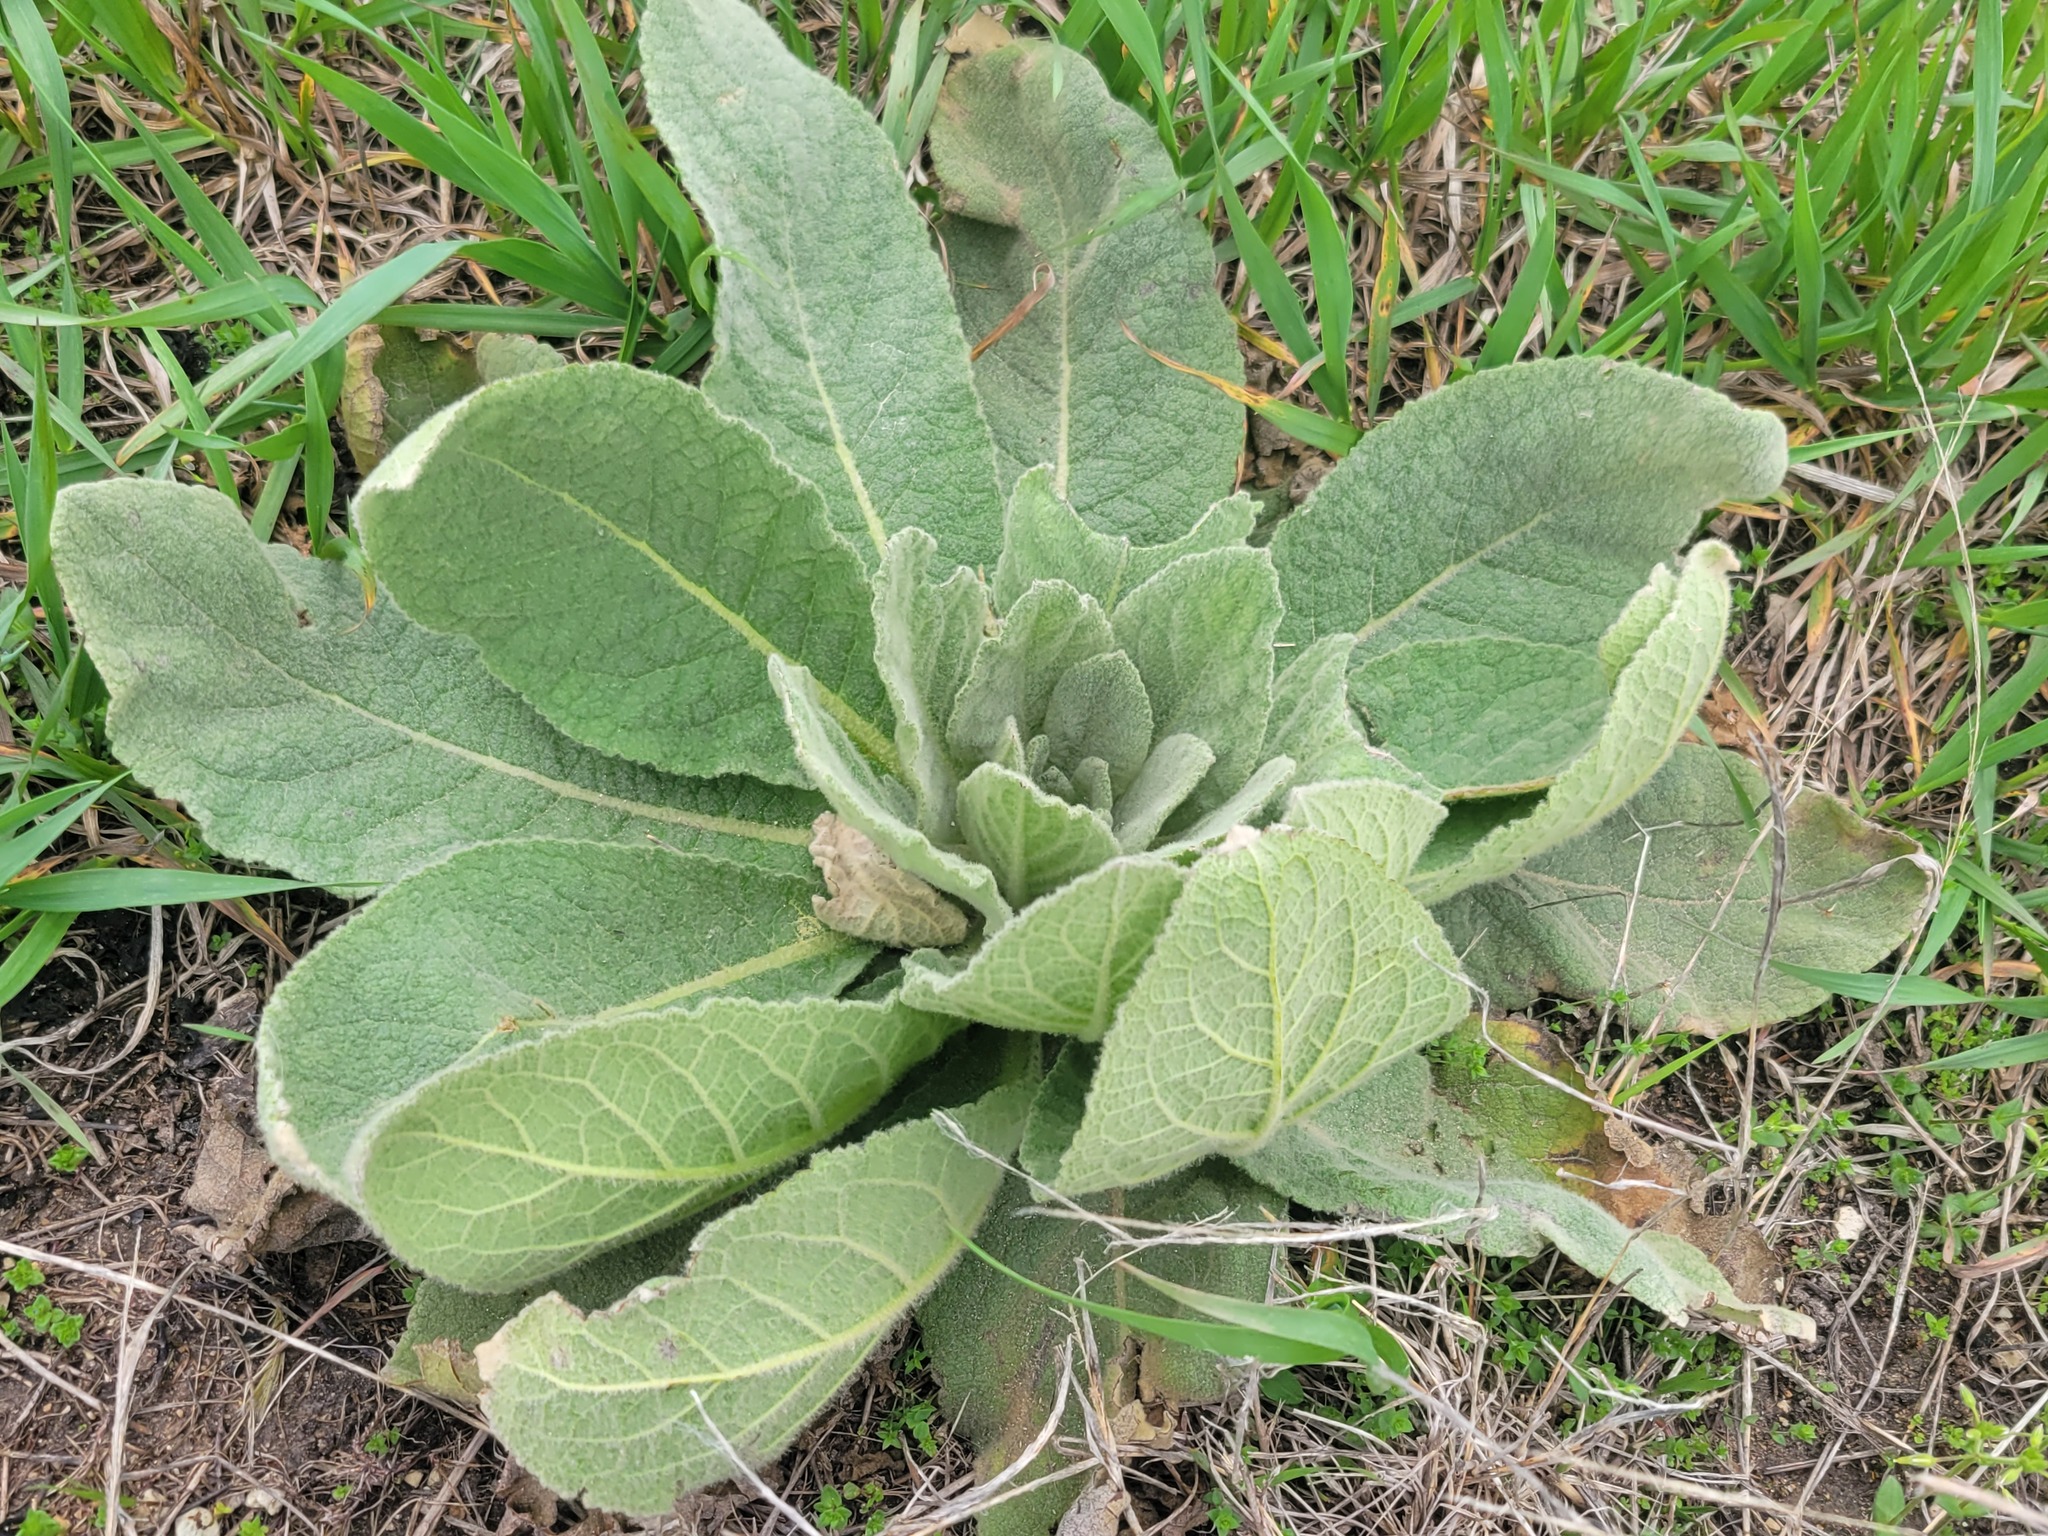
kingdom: Plantae
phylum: Tracheophyta
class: Magnoliopsida
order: Lamiales
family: Scrophulariaceae
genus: Verbascum
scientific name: Verbascum thapsus
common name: Common mullein
